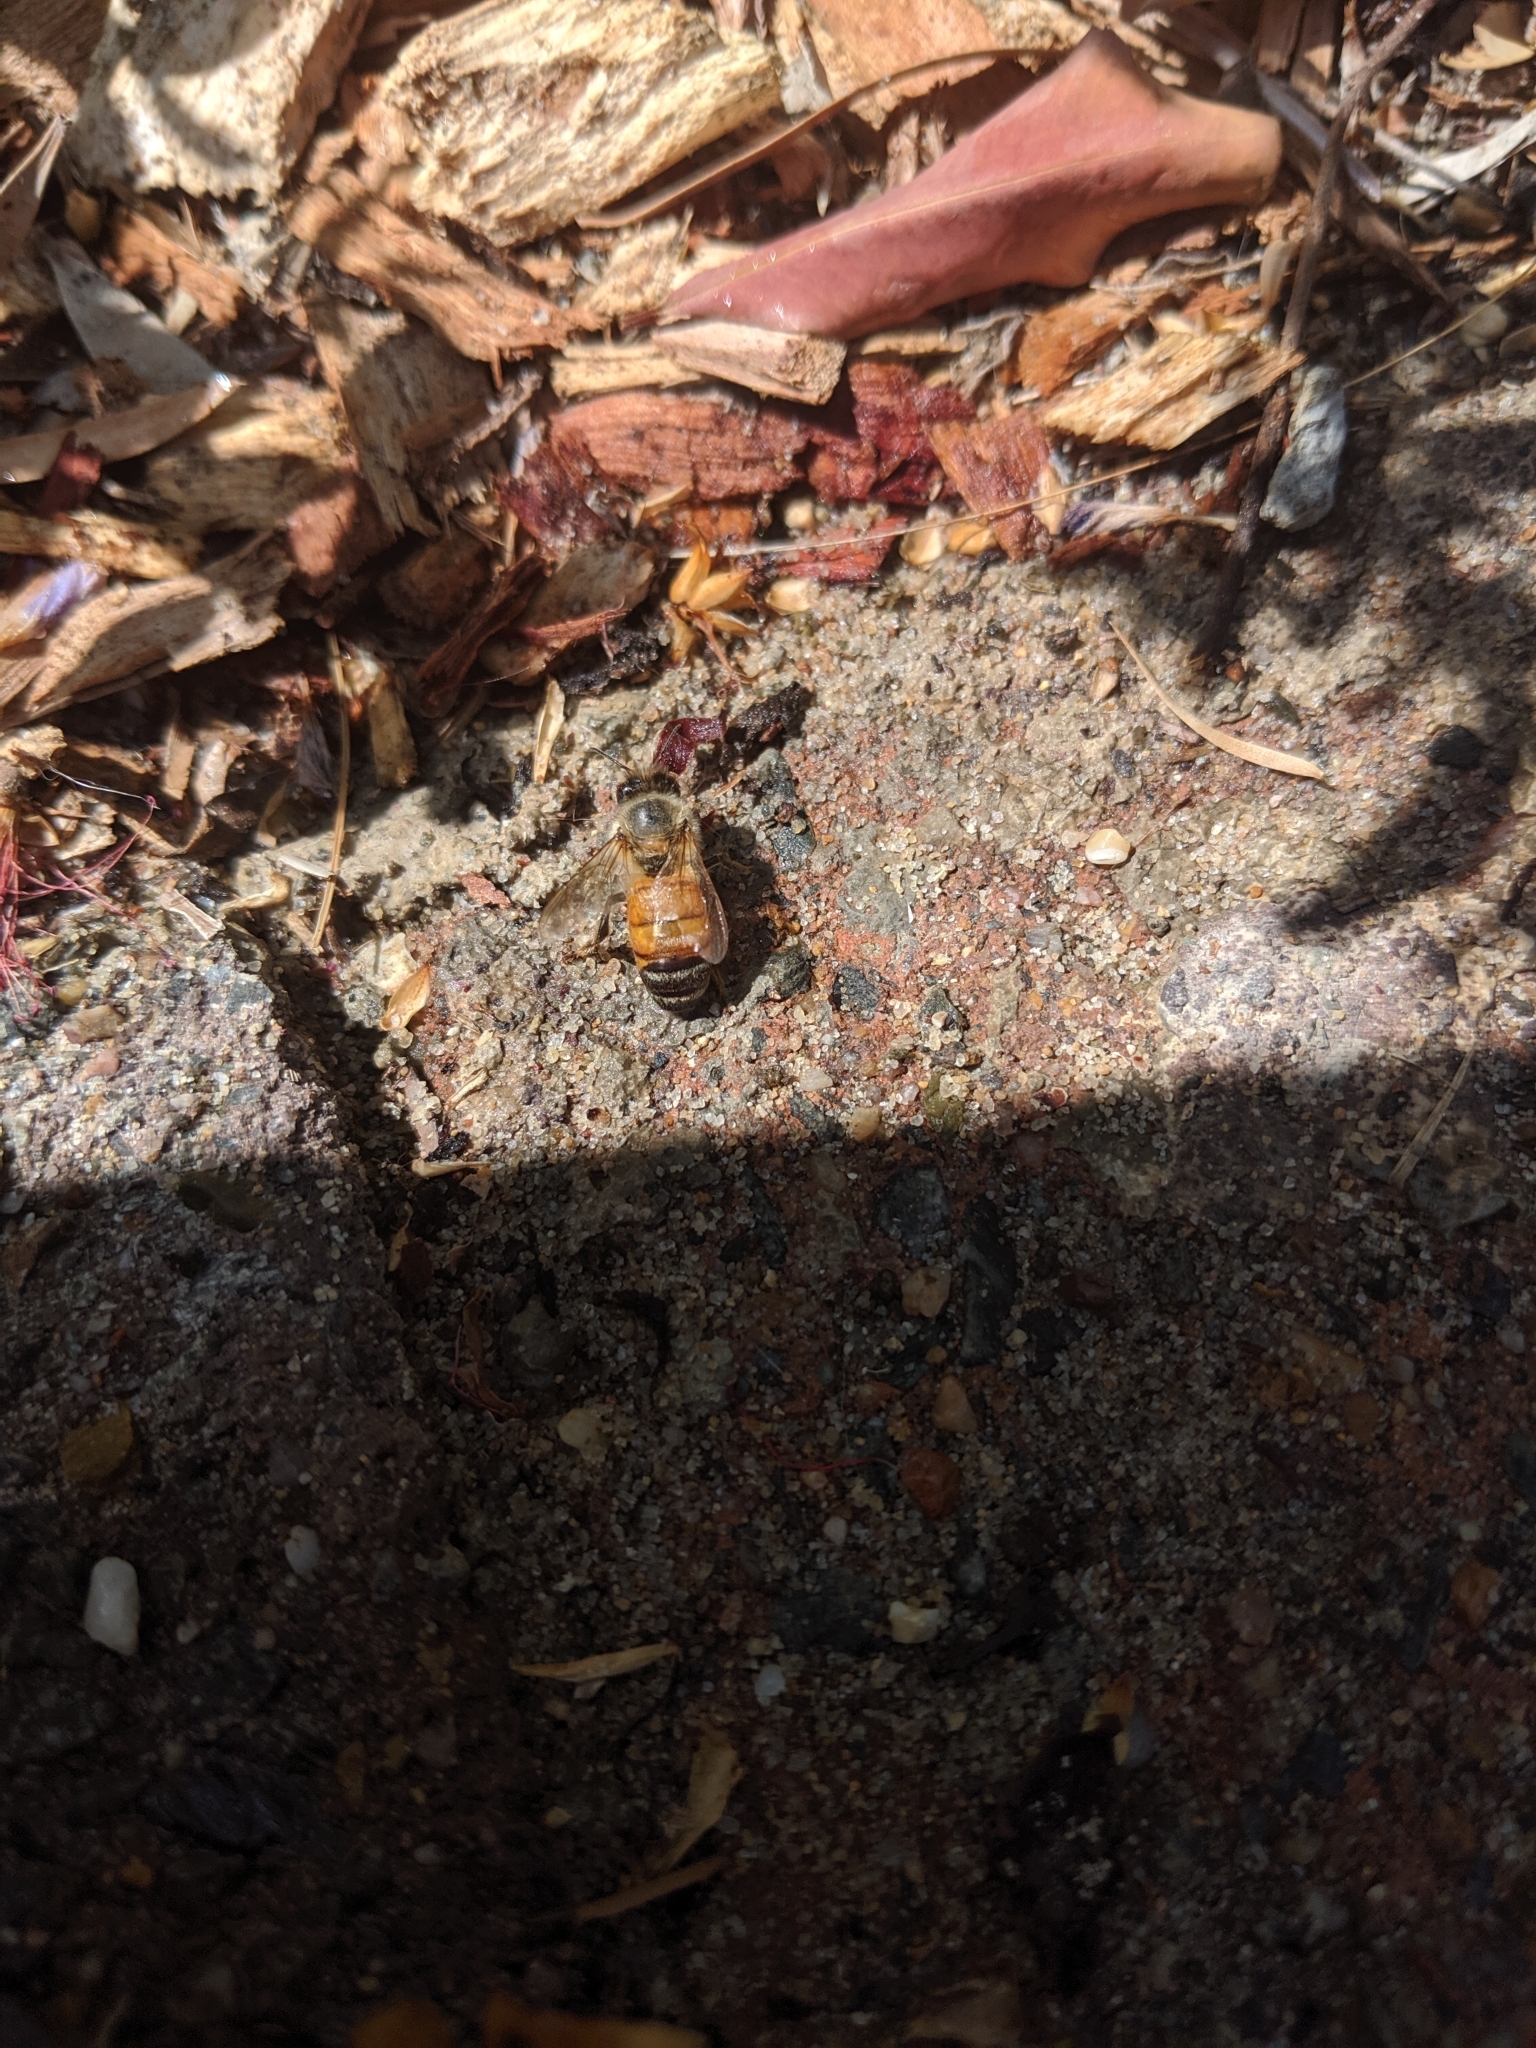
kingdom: Animalia
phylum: Arthropoda
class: Insecta
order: Hymenoptera
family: Apidae
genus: Apis
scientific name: Apis mellifera
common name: Honey bee
